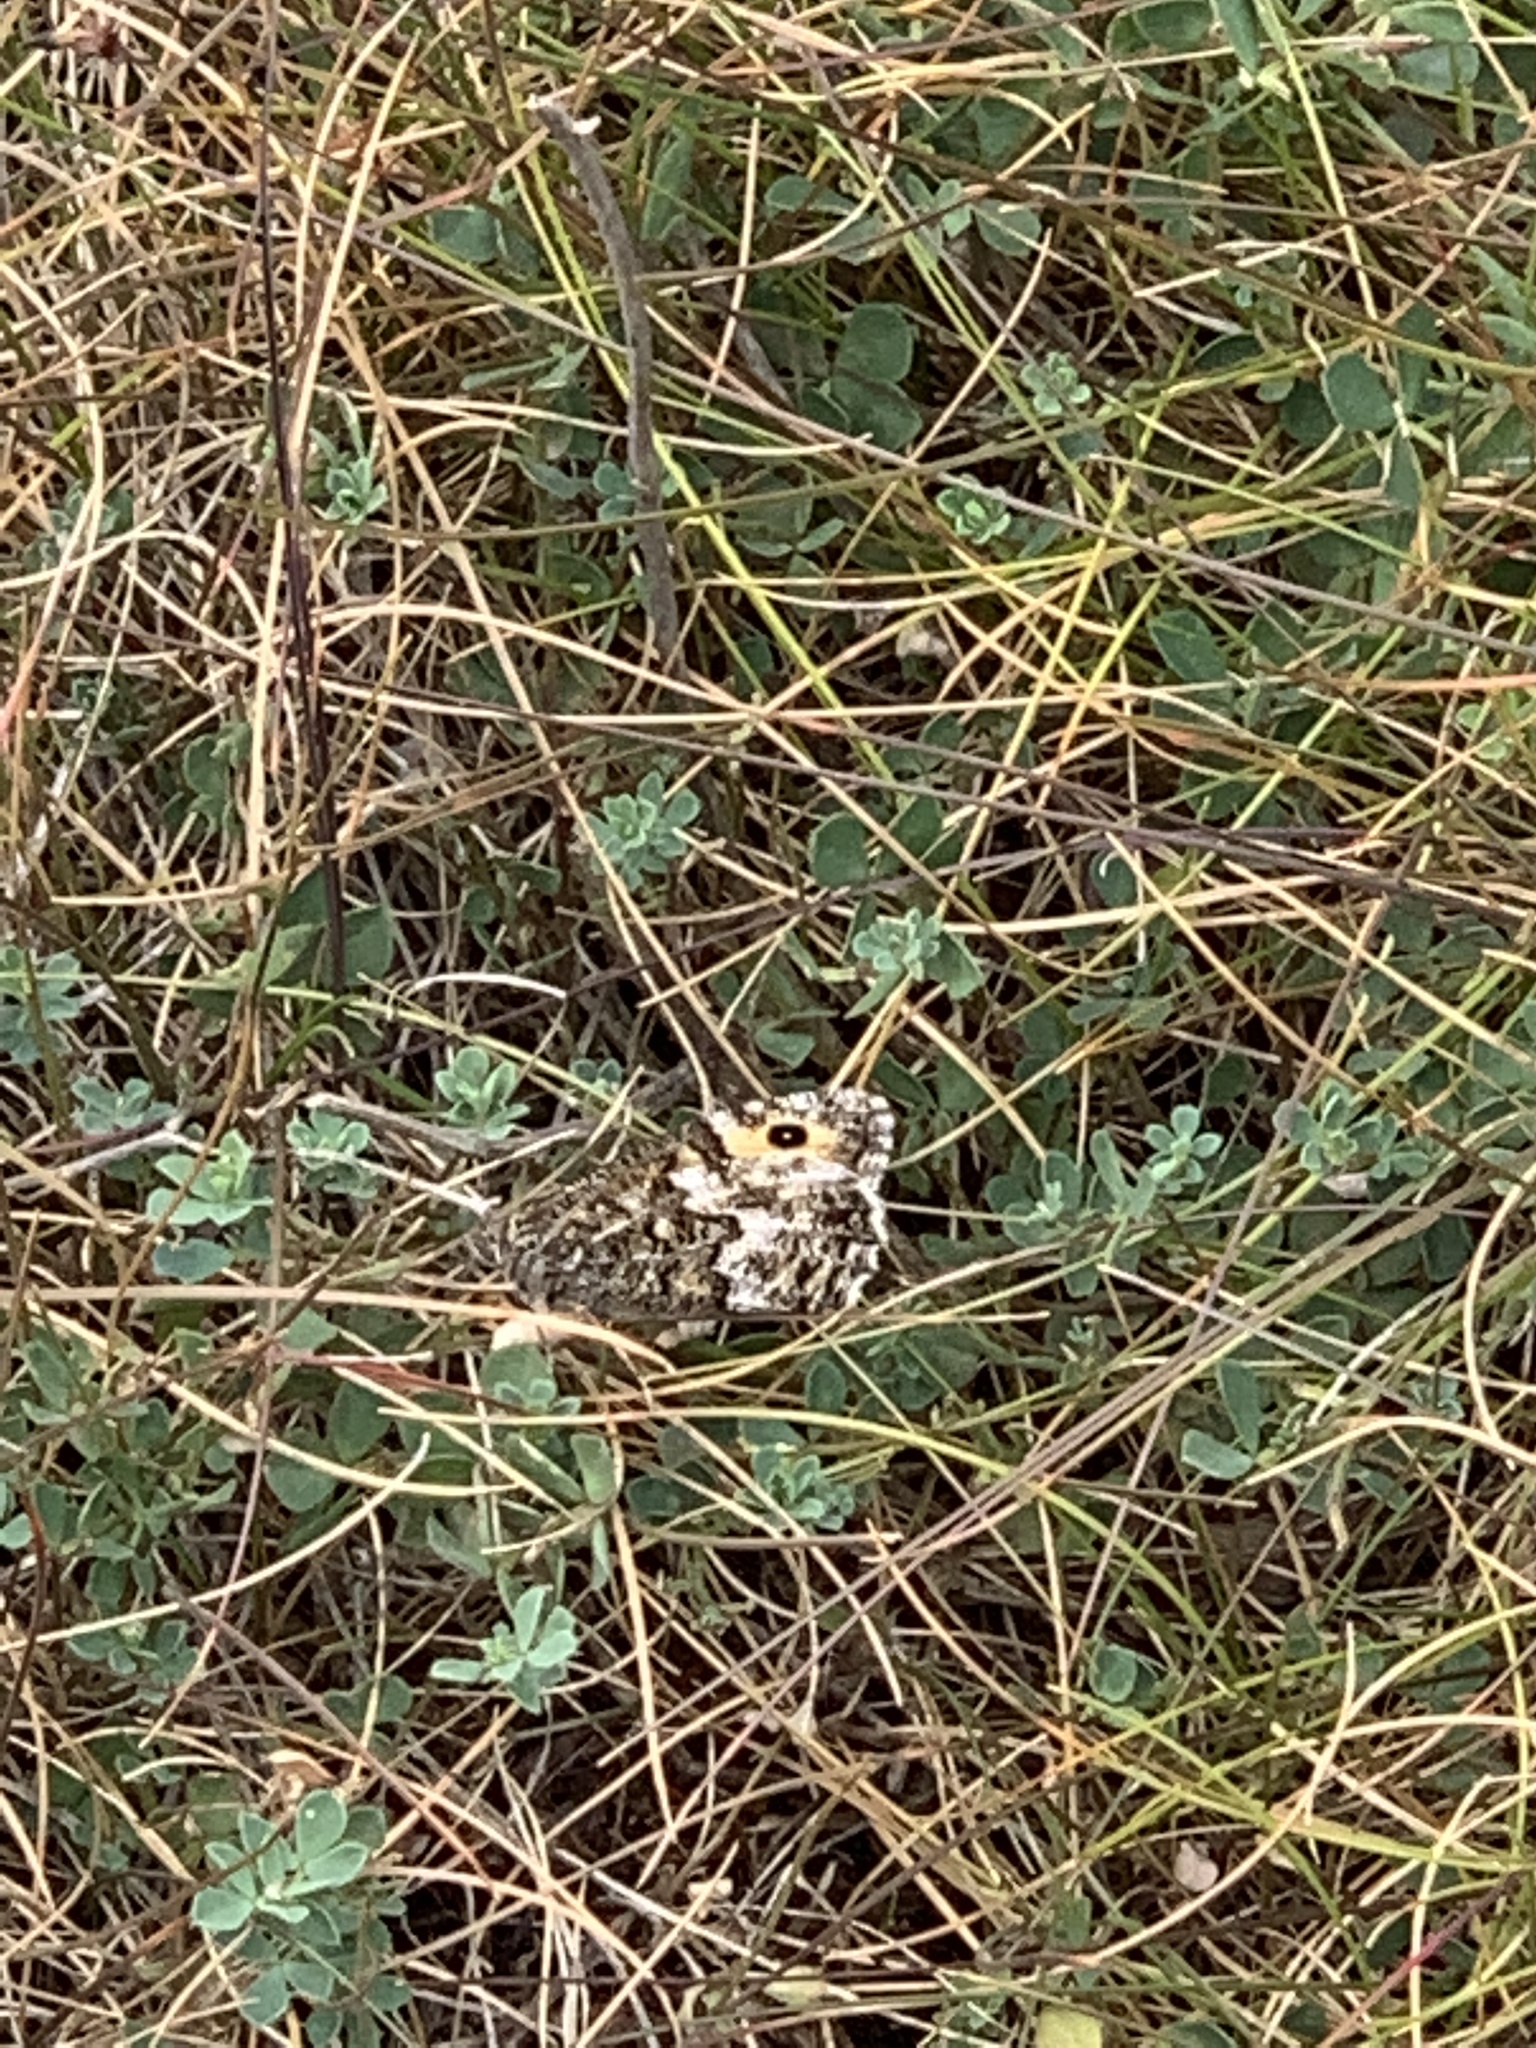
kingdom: Animalia
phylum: Arthropoda
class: Insecta
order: Lepidoptera
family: Nymphalidae
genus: Hipparchia
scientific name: Hipparchia semele
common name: Grayling
